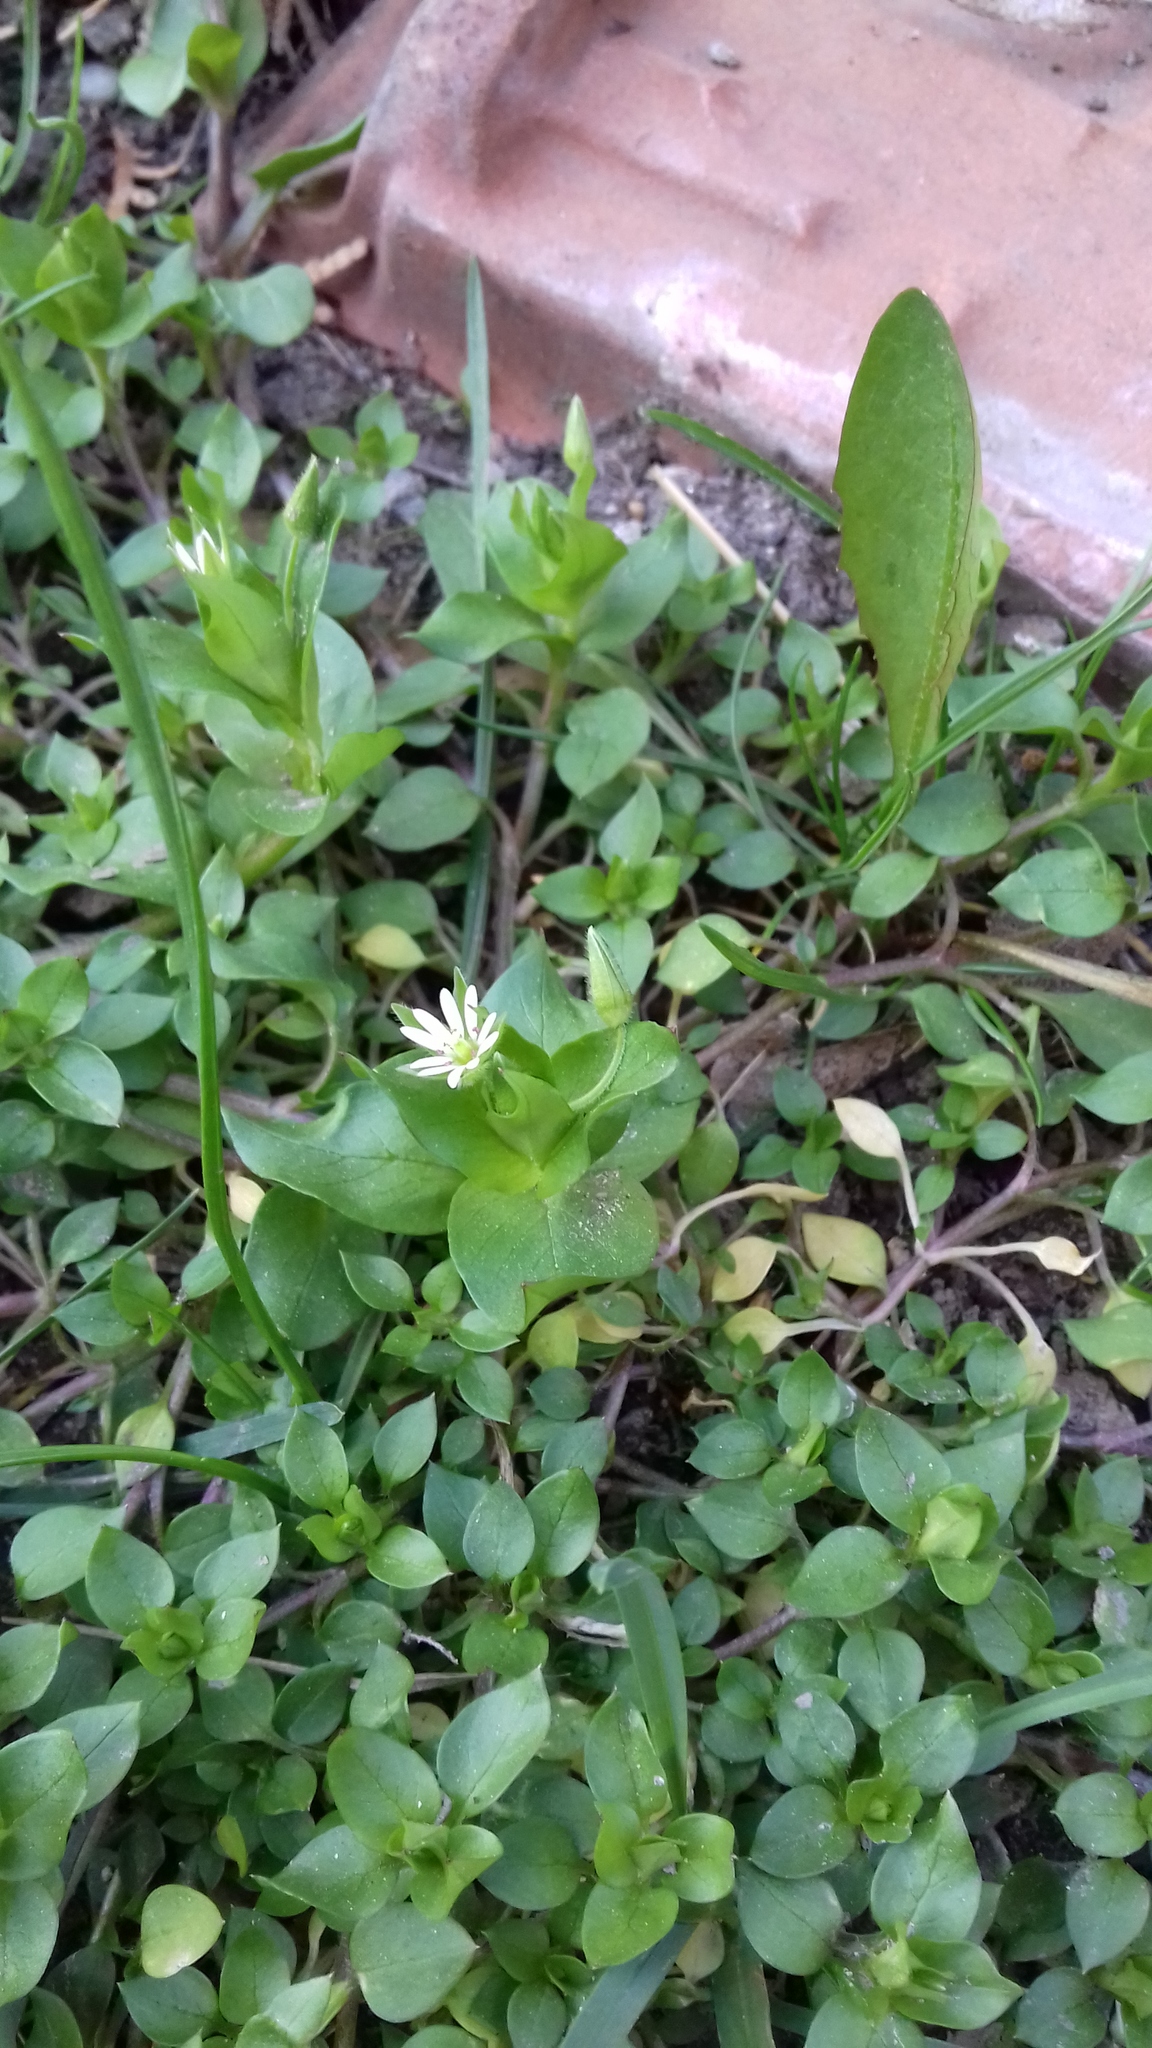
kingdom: Plantae
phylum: Tracheophyta
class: Magnoliopsida
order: Caryophyllales
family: Caryophyllaceae
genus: Stellaria
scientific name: Stellaria media
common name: Common chickweed
